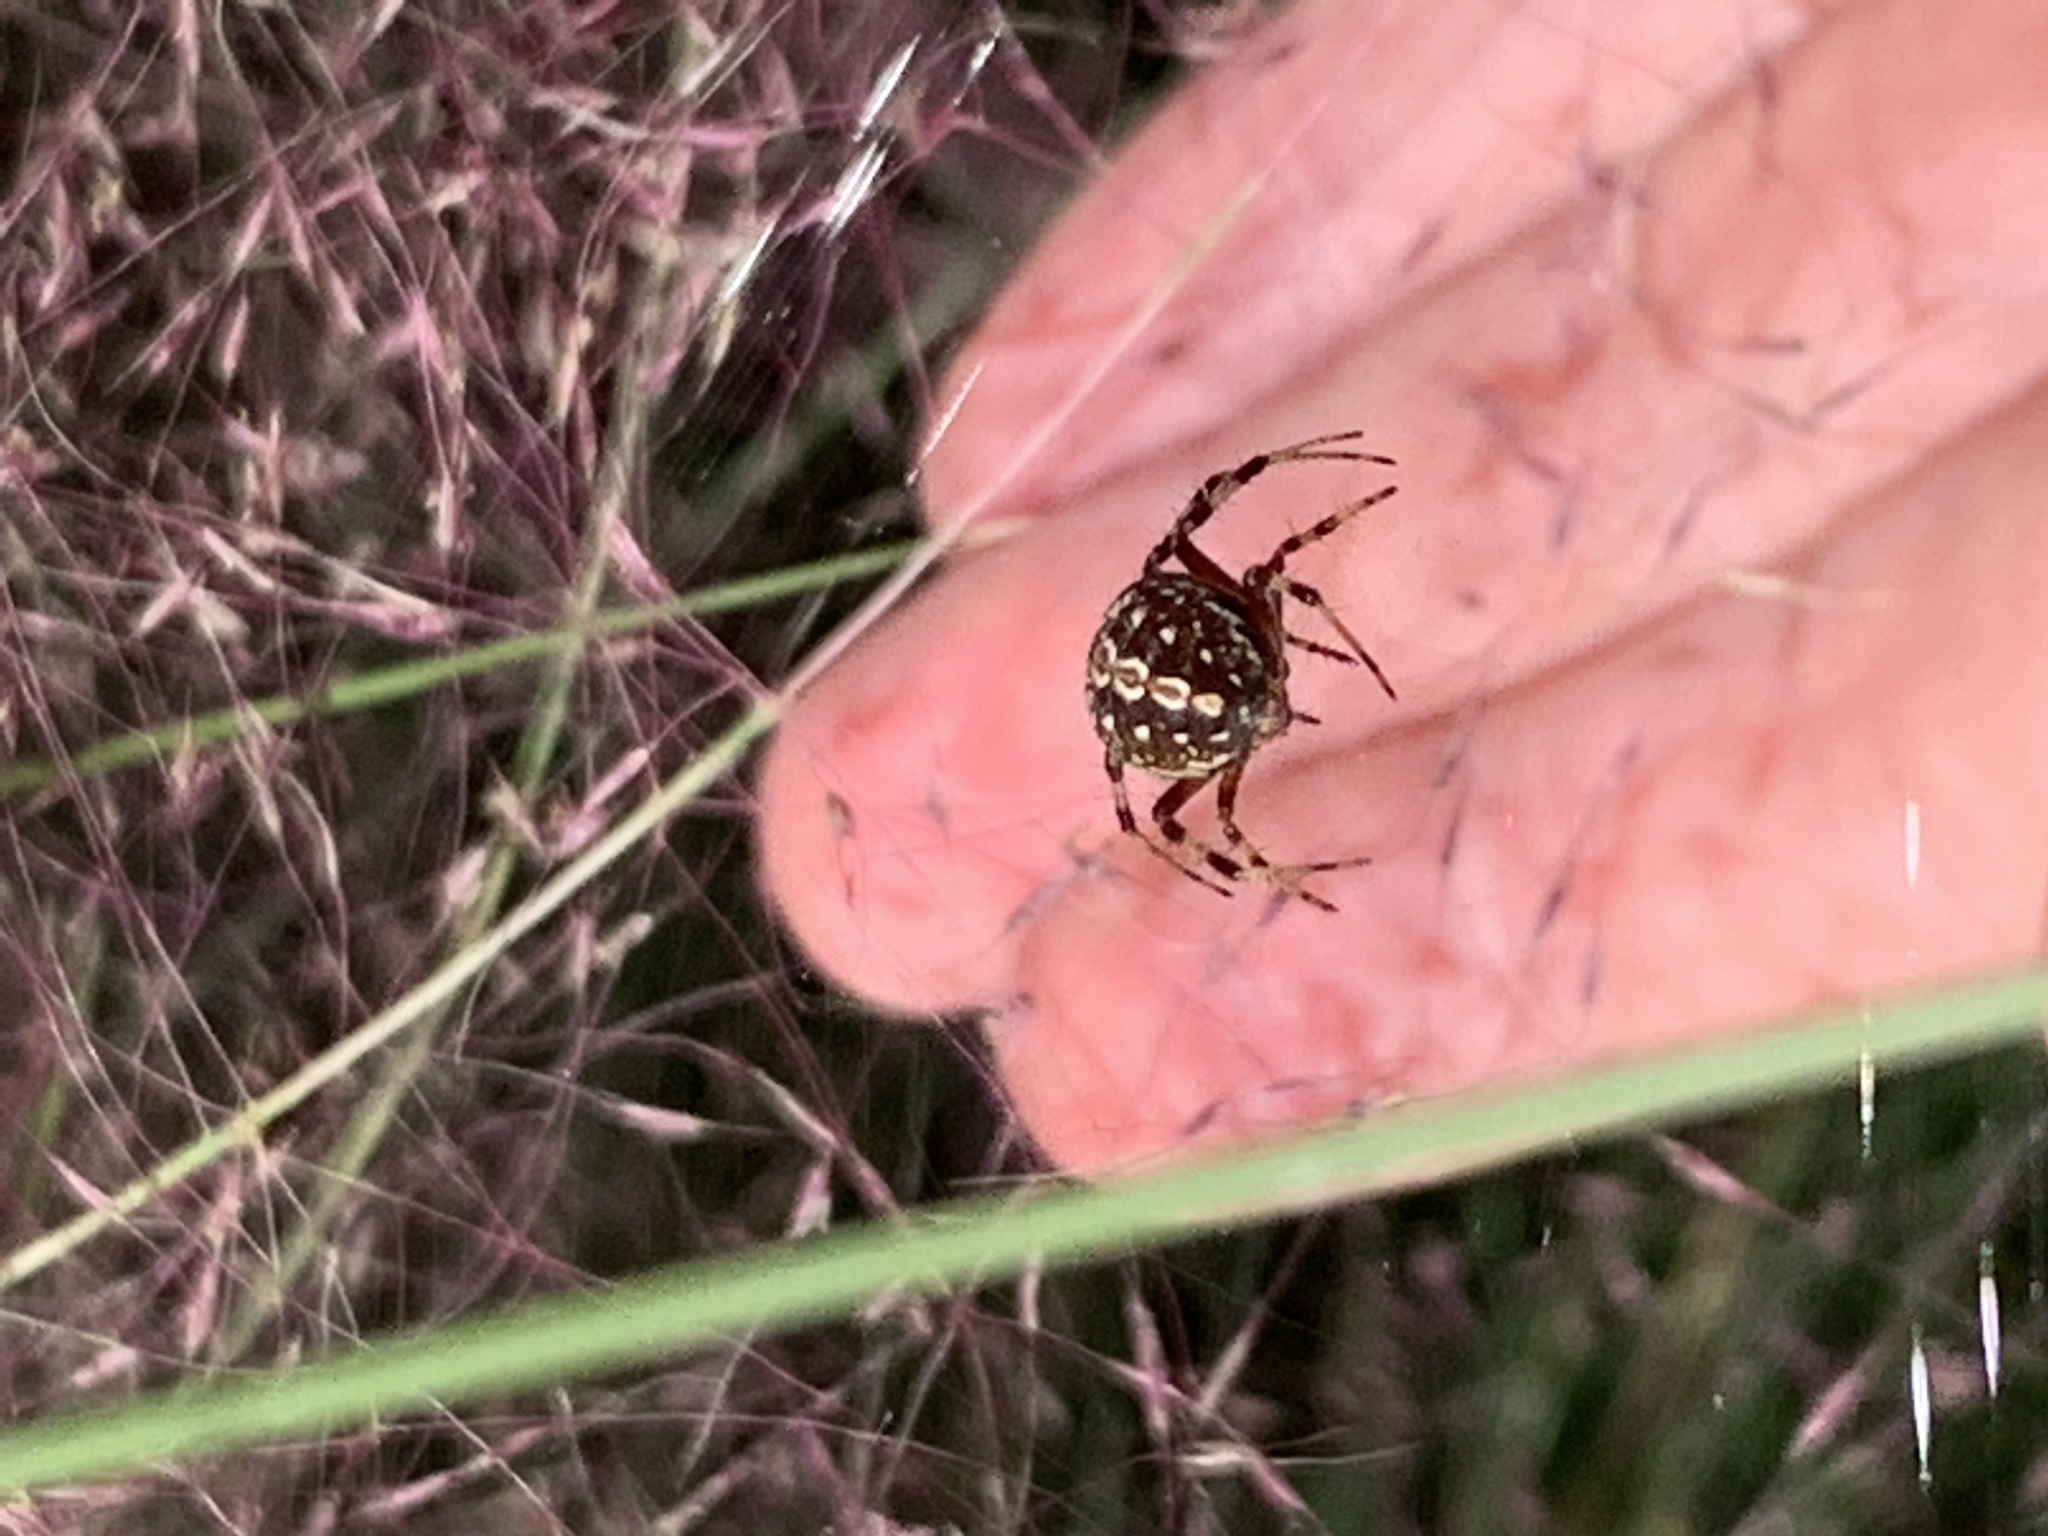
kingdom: Animalia
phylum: Arthropoda
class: Arachnida
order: Araneae
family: Araneidae
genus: Neoscona
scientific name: Neoscona oaxacensis
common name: Orb weavers
